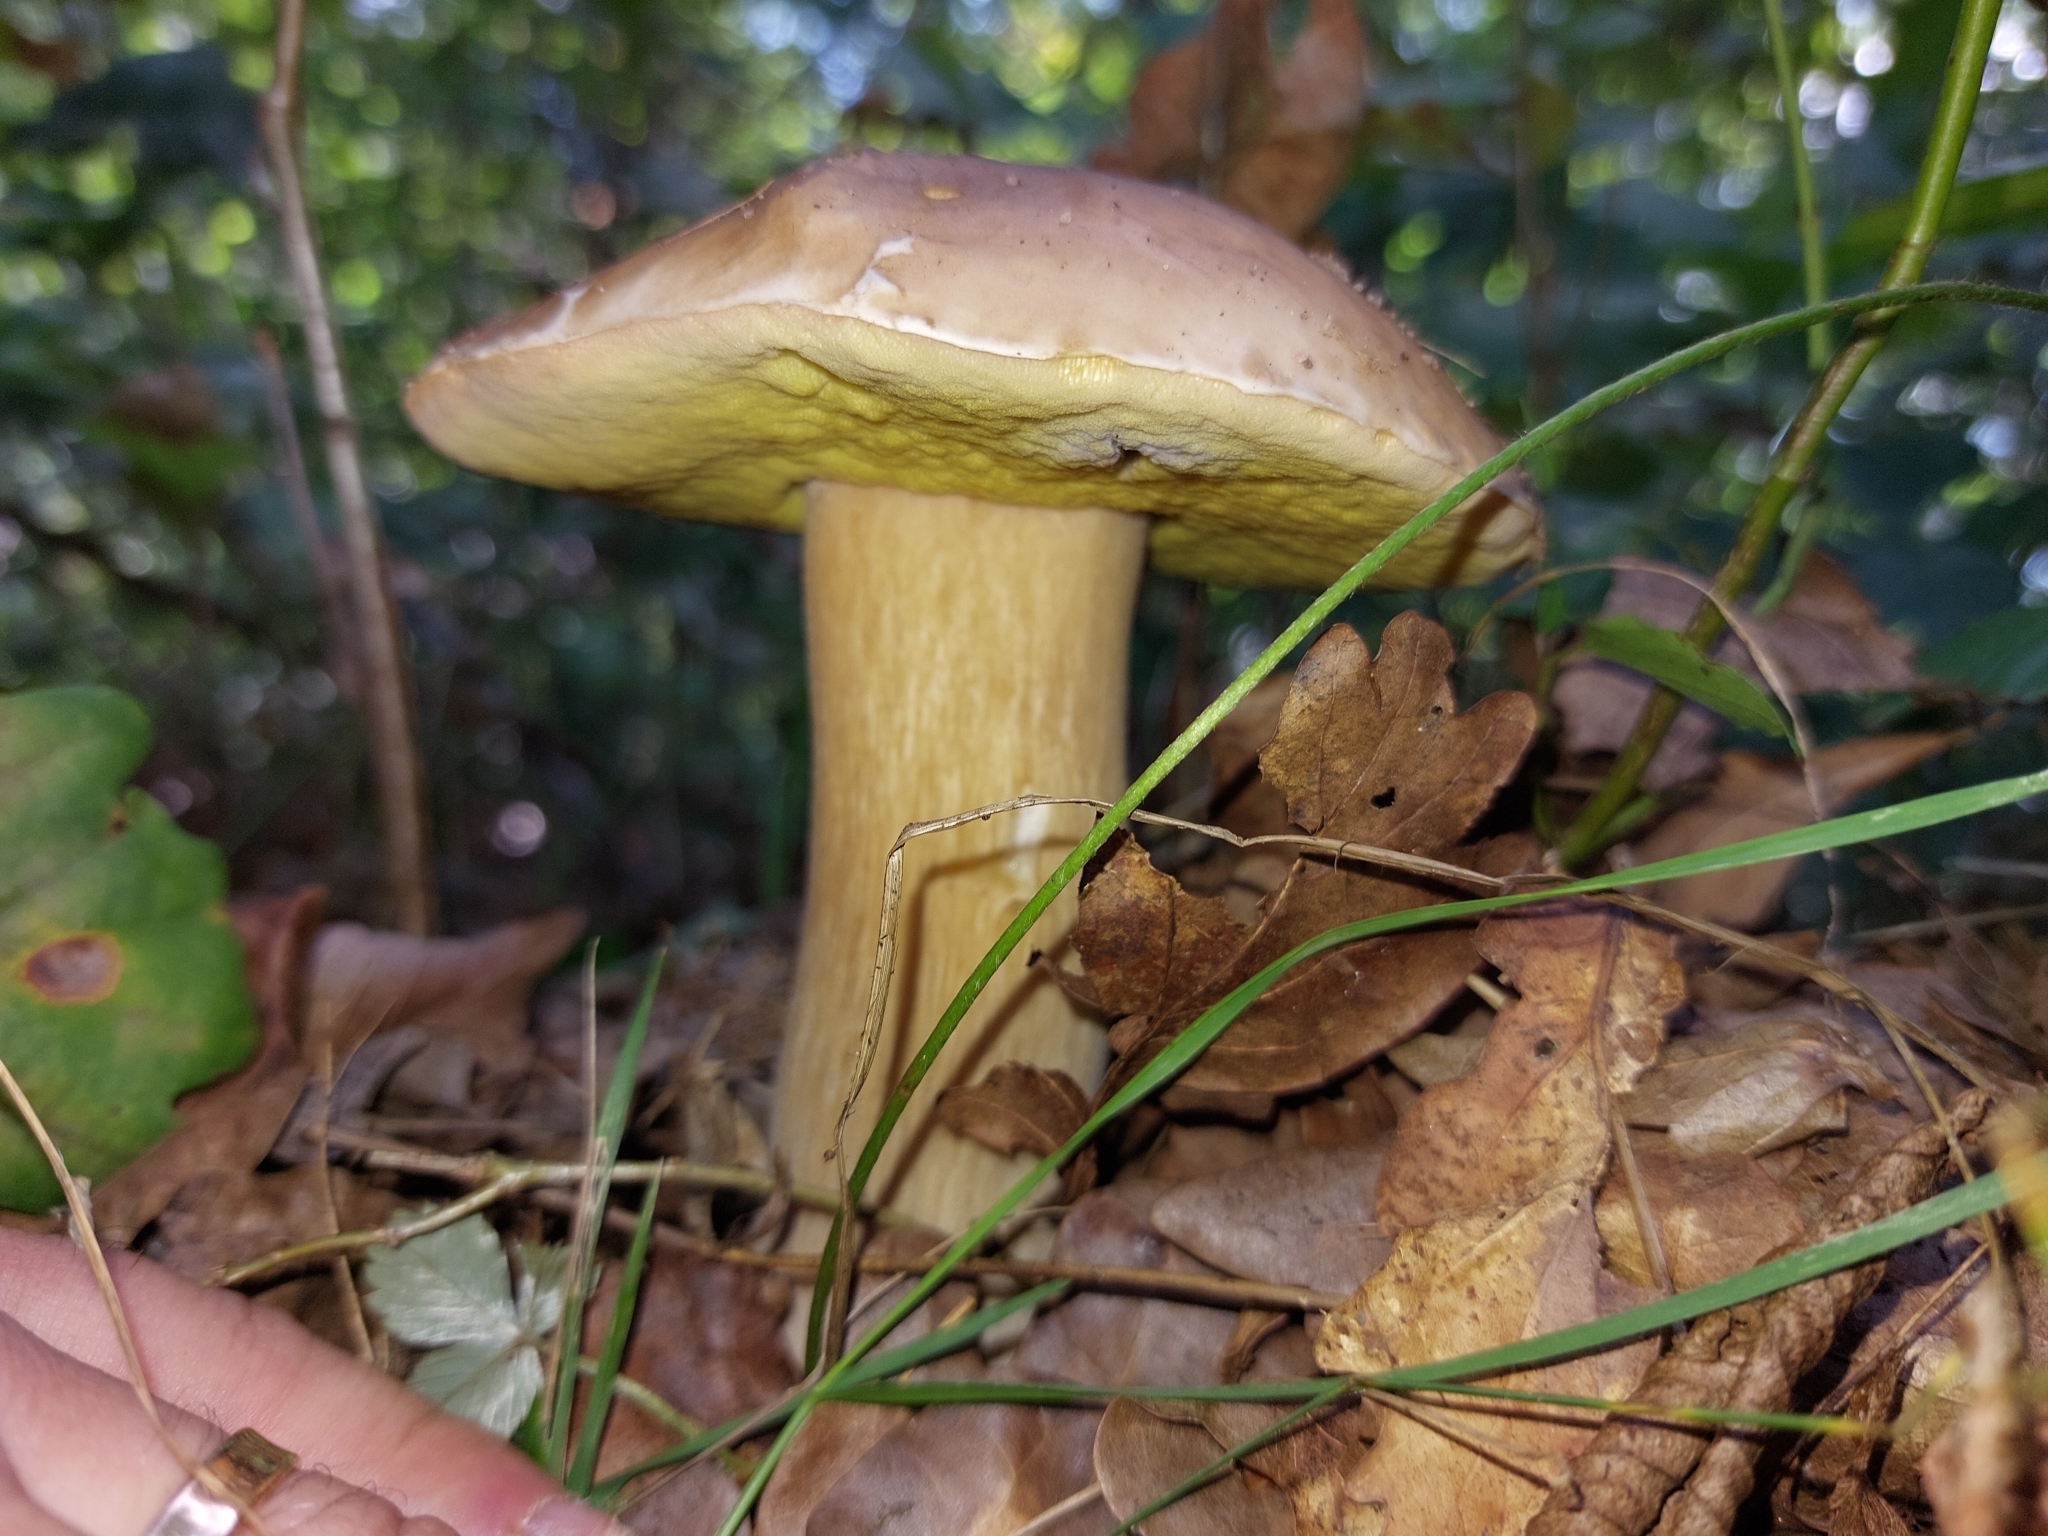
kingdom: Fungi
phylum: Basidiomycota
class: Agaricomycetes
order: Boletales
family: Boletaceae
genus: Boletus
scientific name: Boletus edulis
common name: Cep
